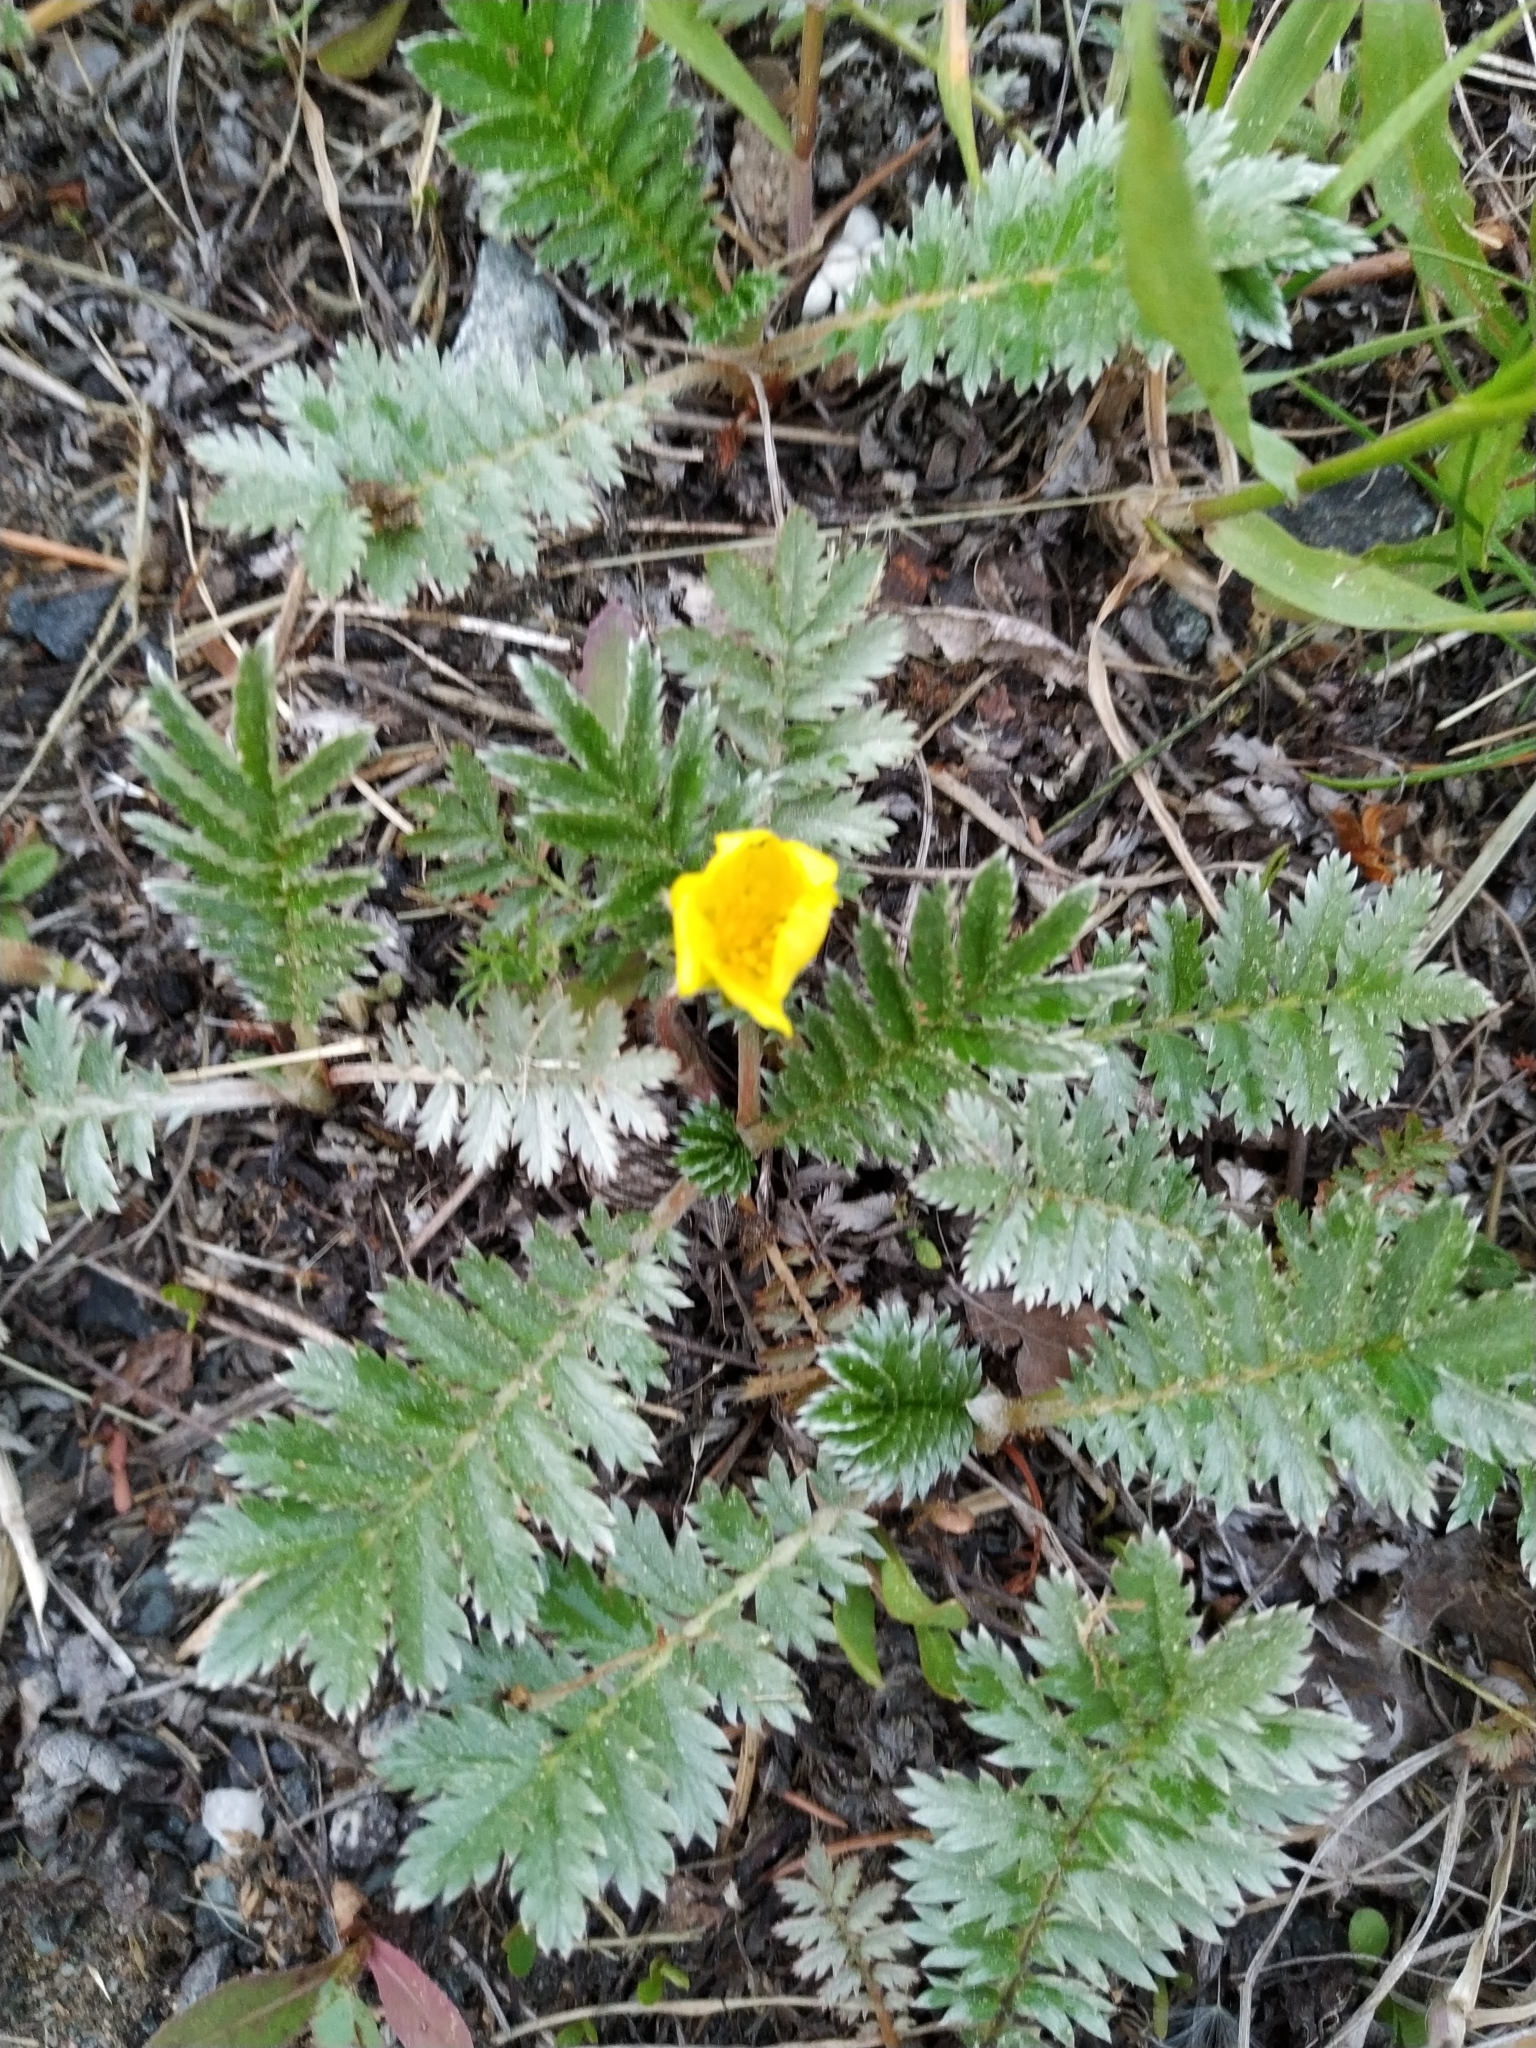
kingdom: Plantae
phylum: Tracheophyta
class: Magnoliopsida
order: Rosales
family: Rosaceae
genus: Argentina
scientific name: Argentina anserina
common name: Common silverweed
